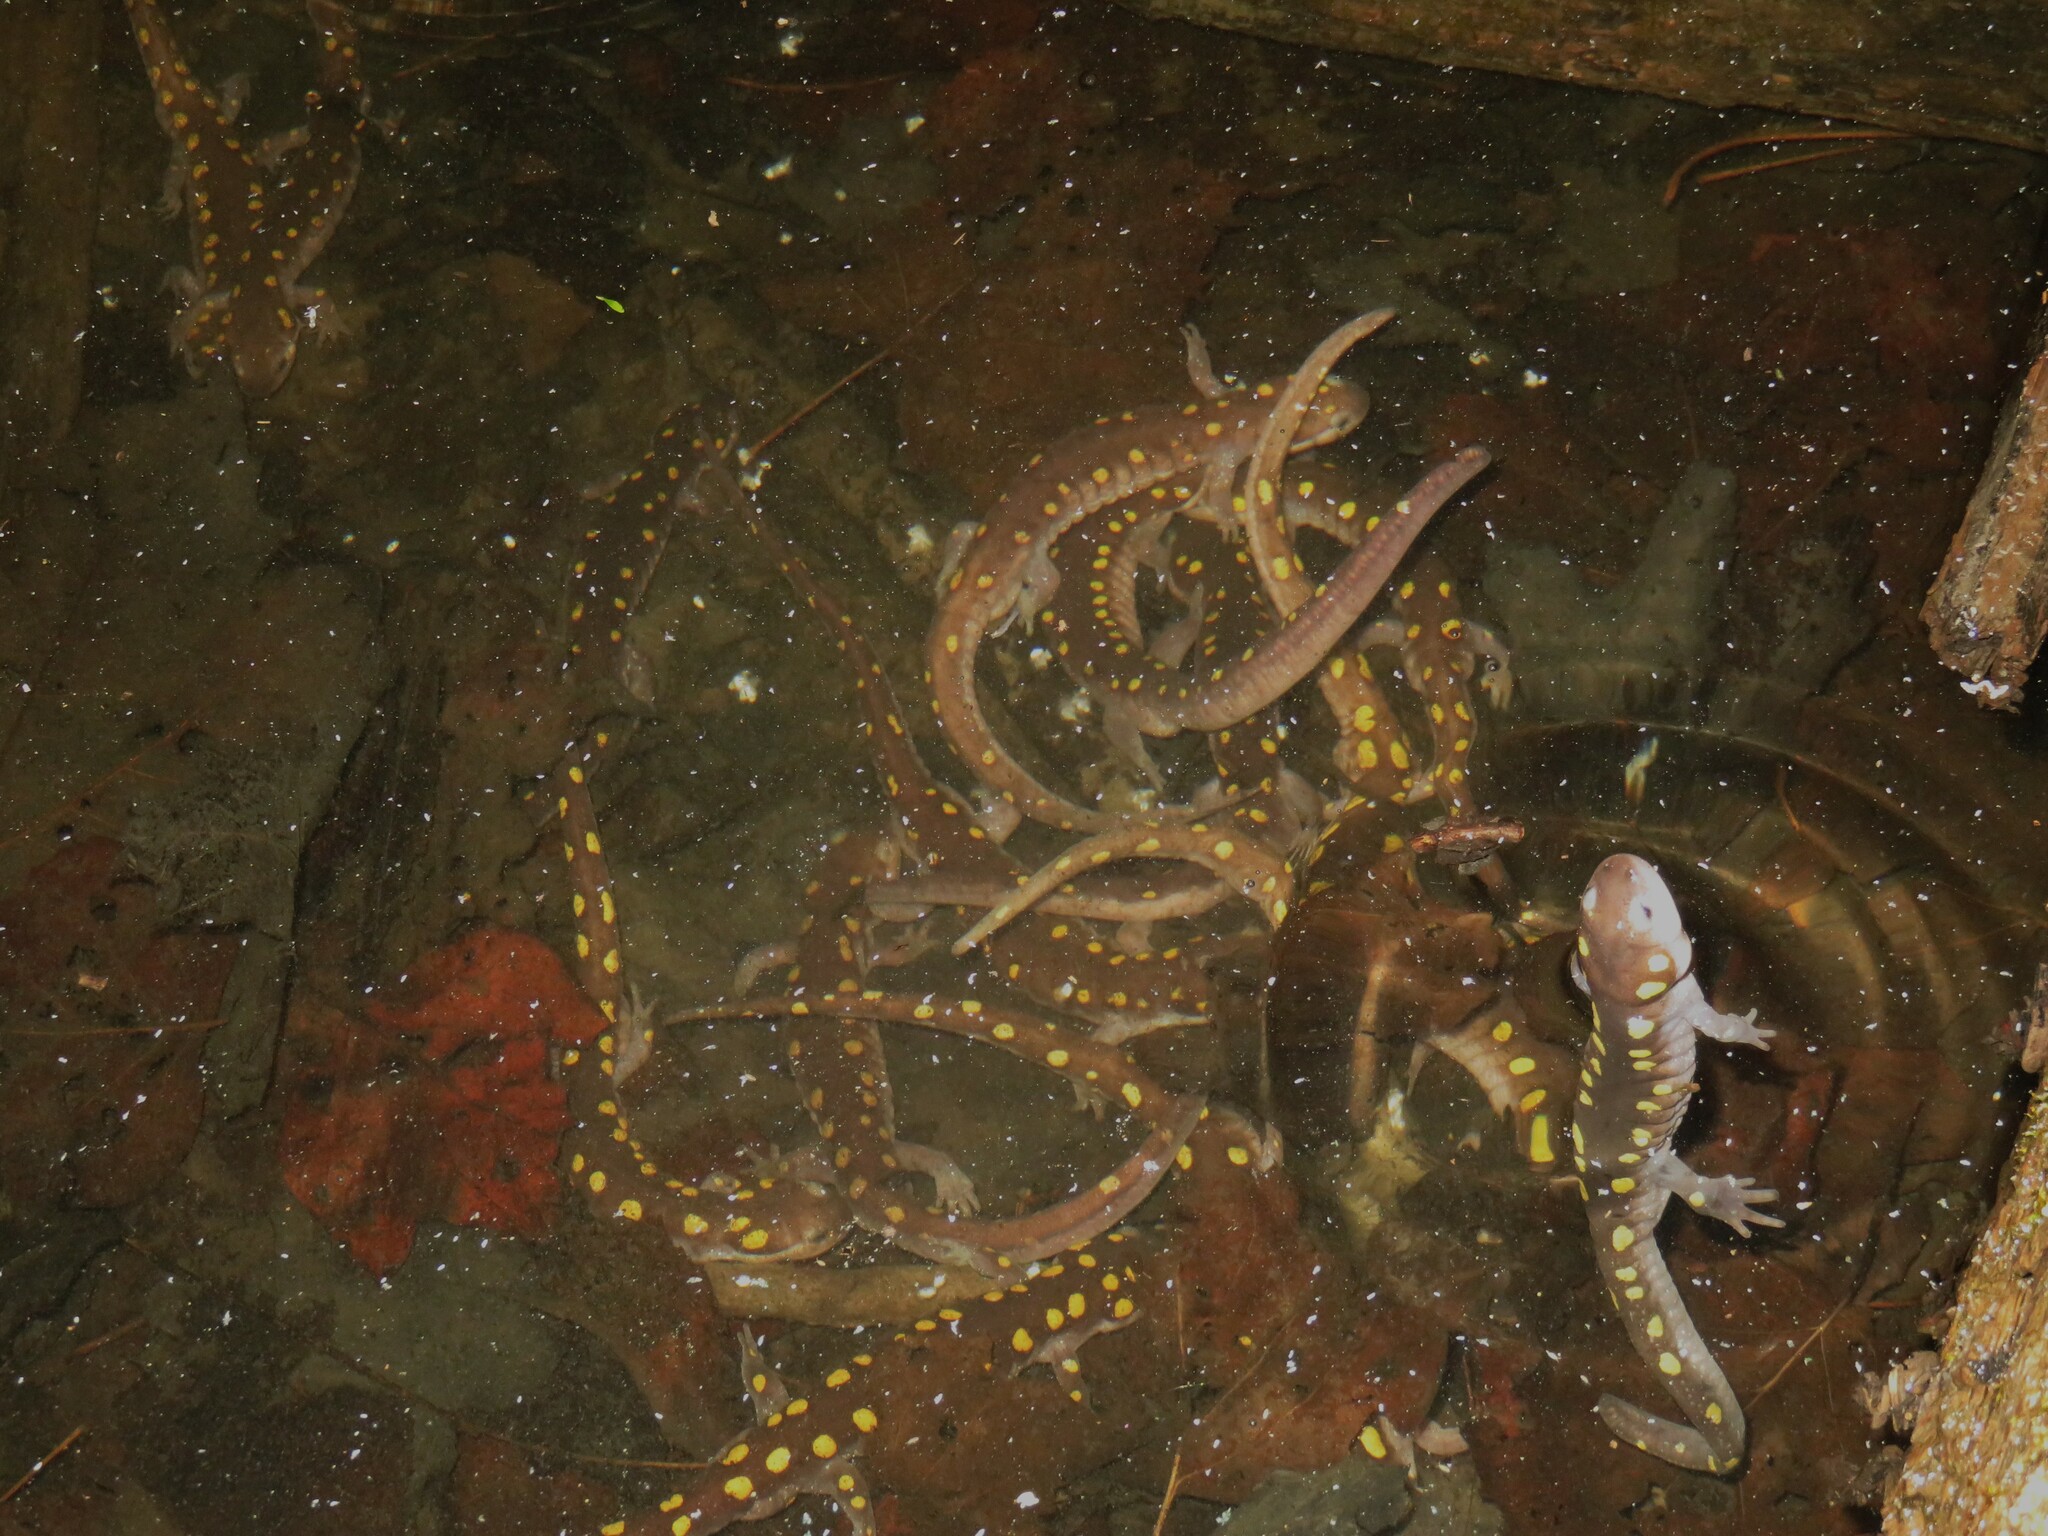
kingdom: Animalia
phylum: Chordata
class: Amphibia
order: Caudata
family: Ambystomatidae
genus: Ambystoma
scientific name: Ambystoma maculatum
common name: Spotted salamander
